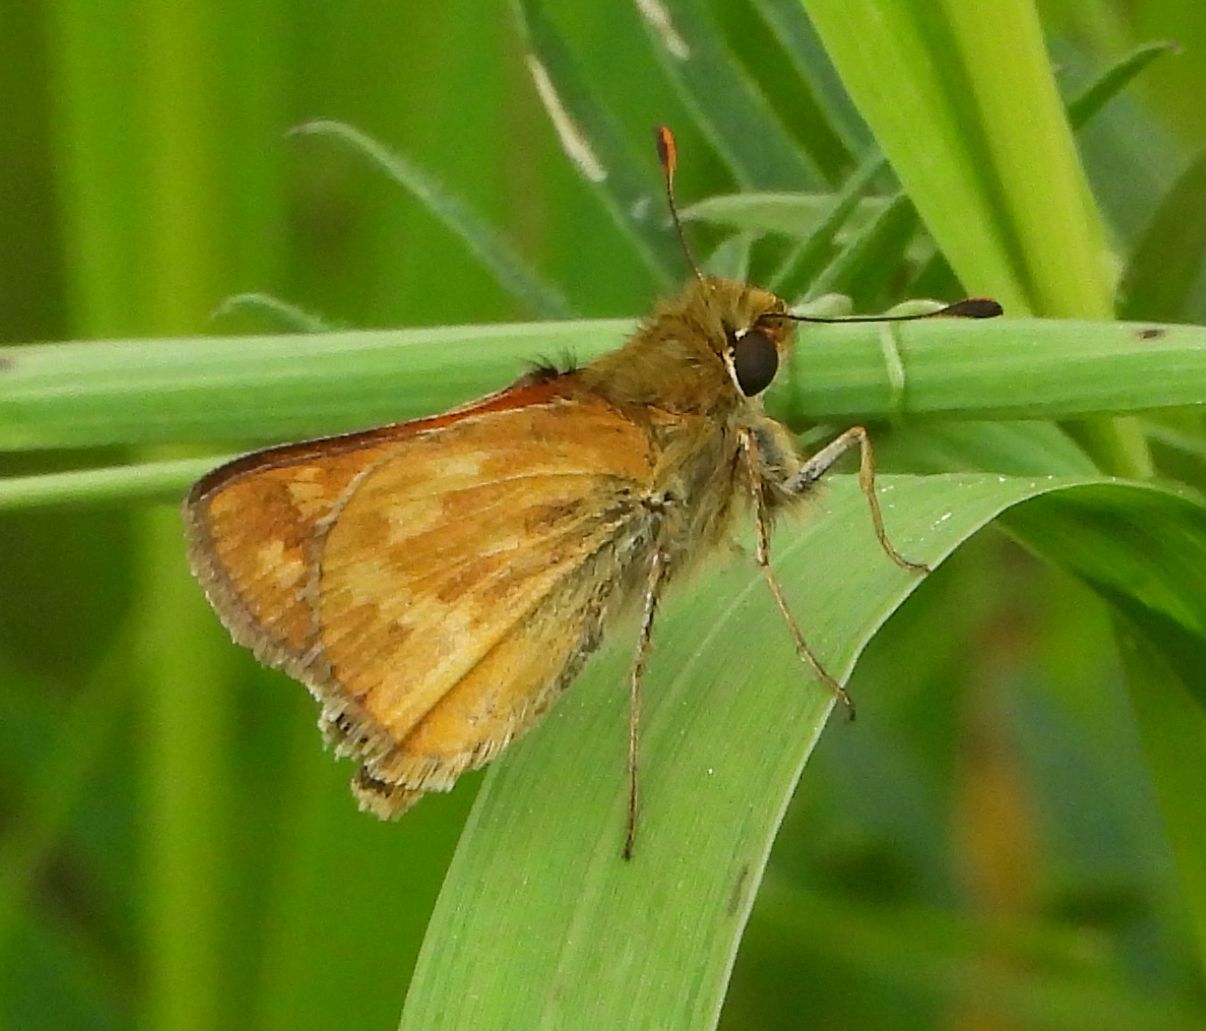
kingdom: Animalia
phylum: Arthropoda
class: Insecta
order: Lepidoptera
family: Hesperiidae
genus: Hesperia
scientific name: Hesperia sassacus
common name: Indian skipper
